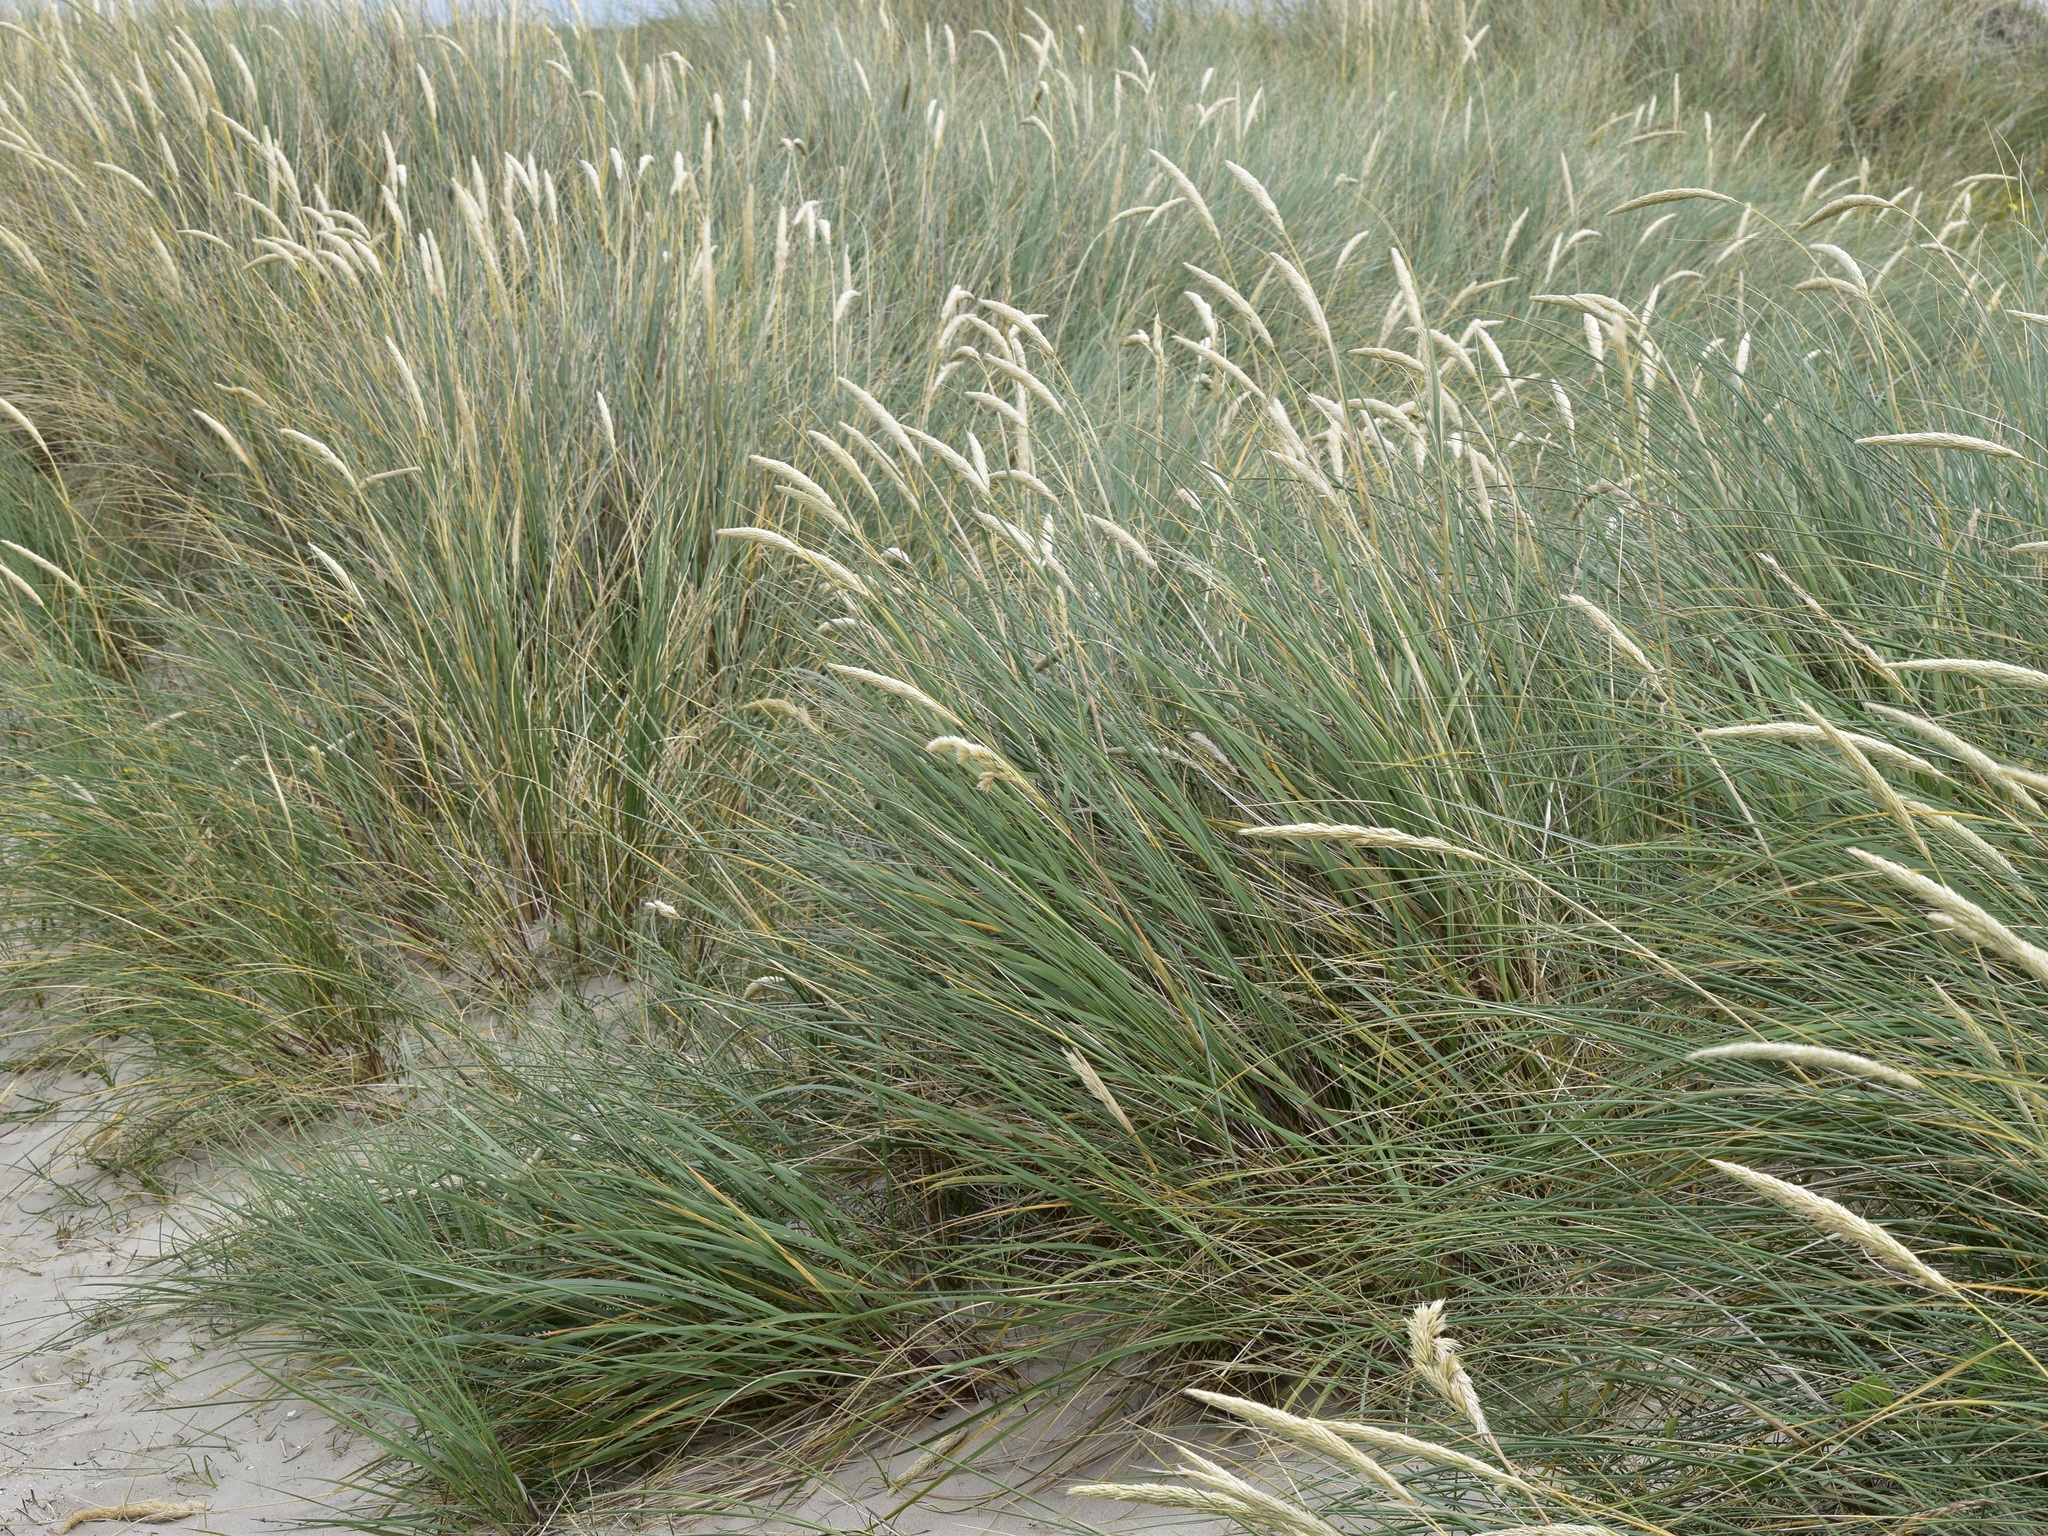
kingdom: Plantae
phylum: Tracheophyta
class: Liliopsida
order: Poales
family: Poaceae
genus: Calamagrostis
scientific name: Calamagrostis arenaria
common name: European beachgrass
